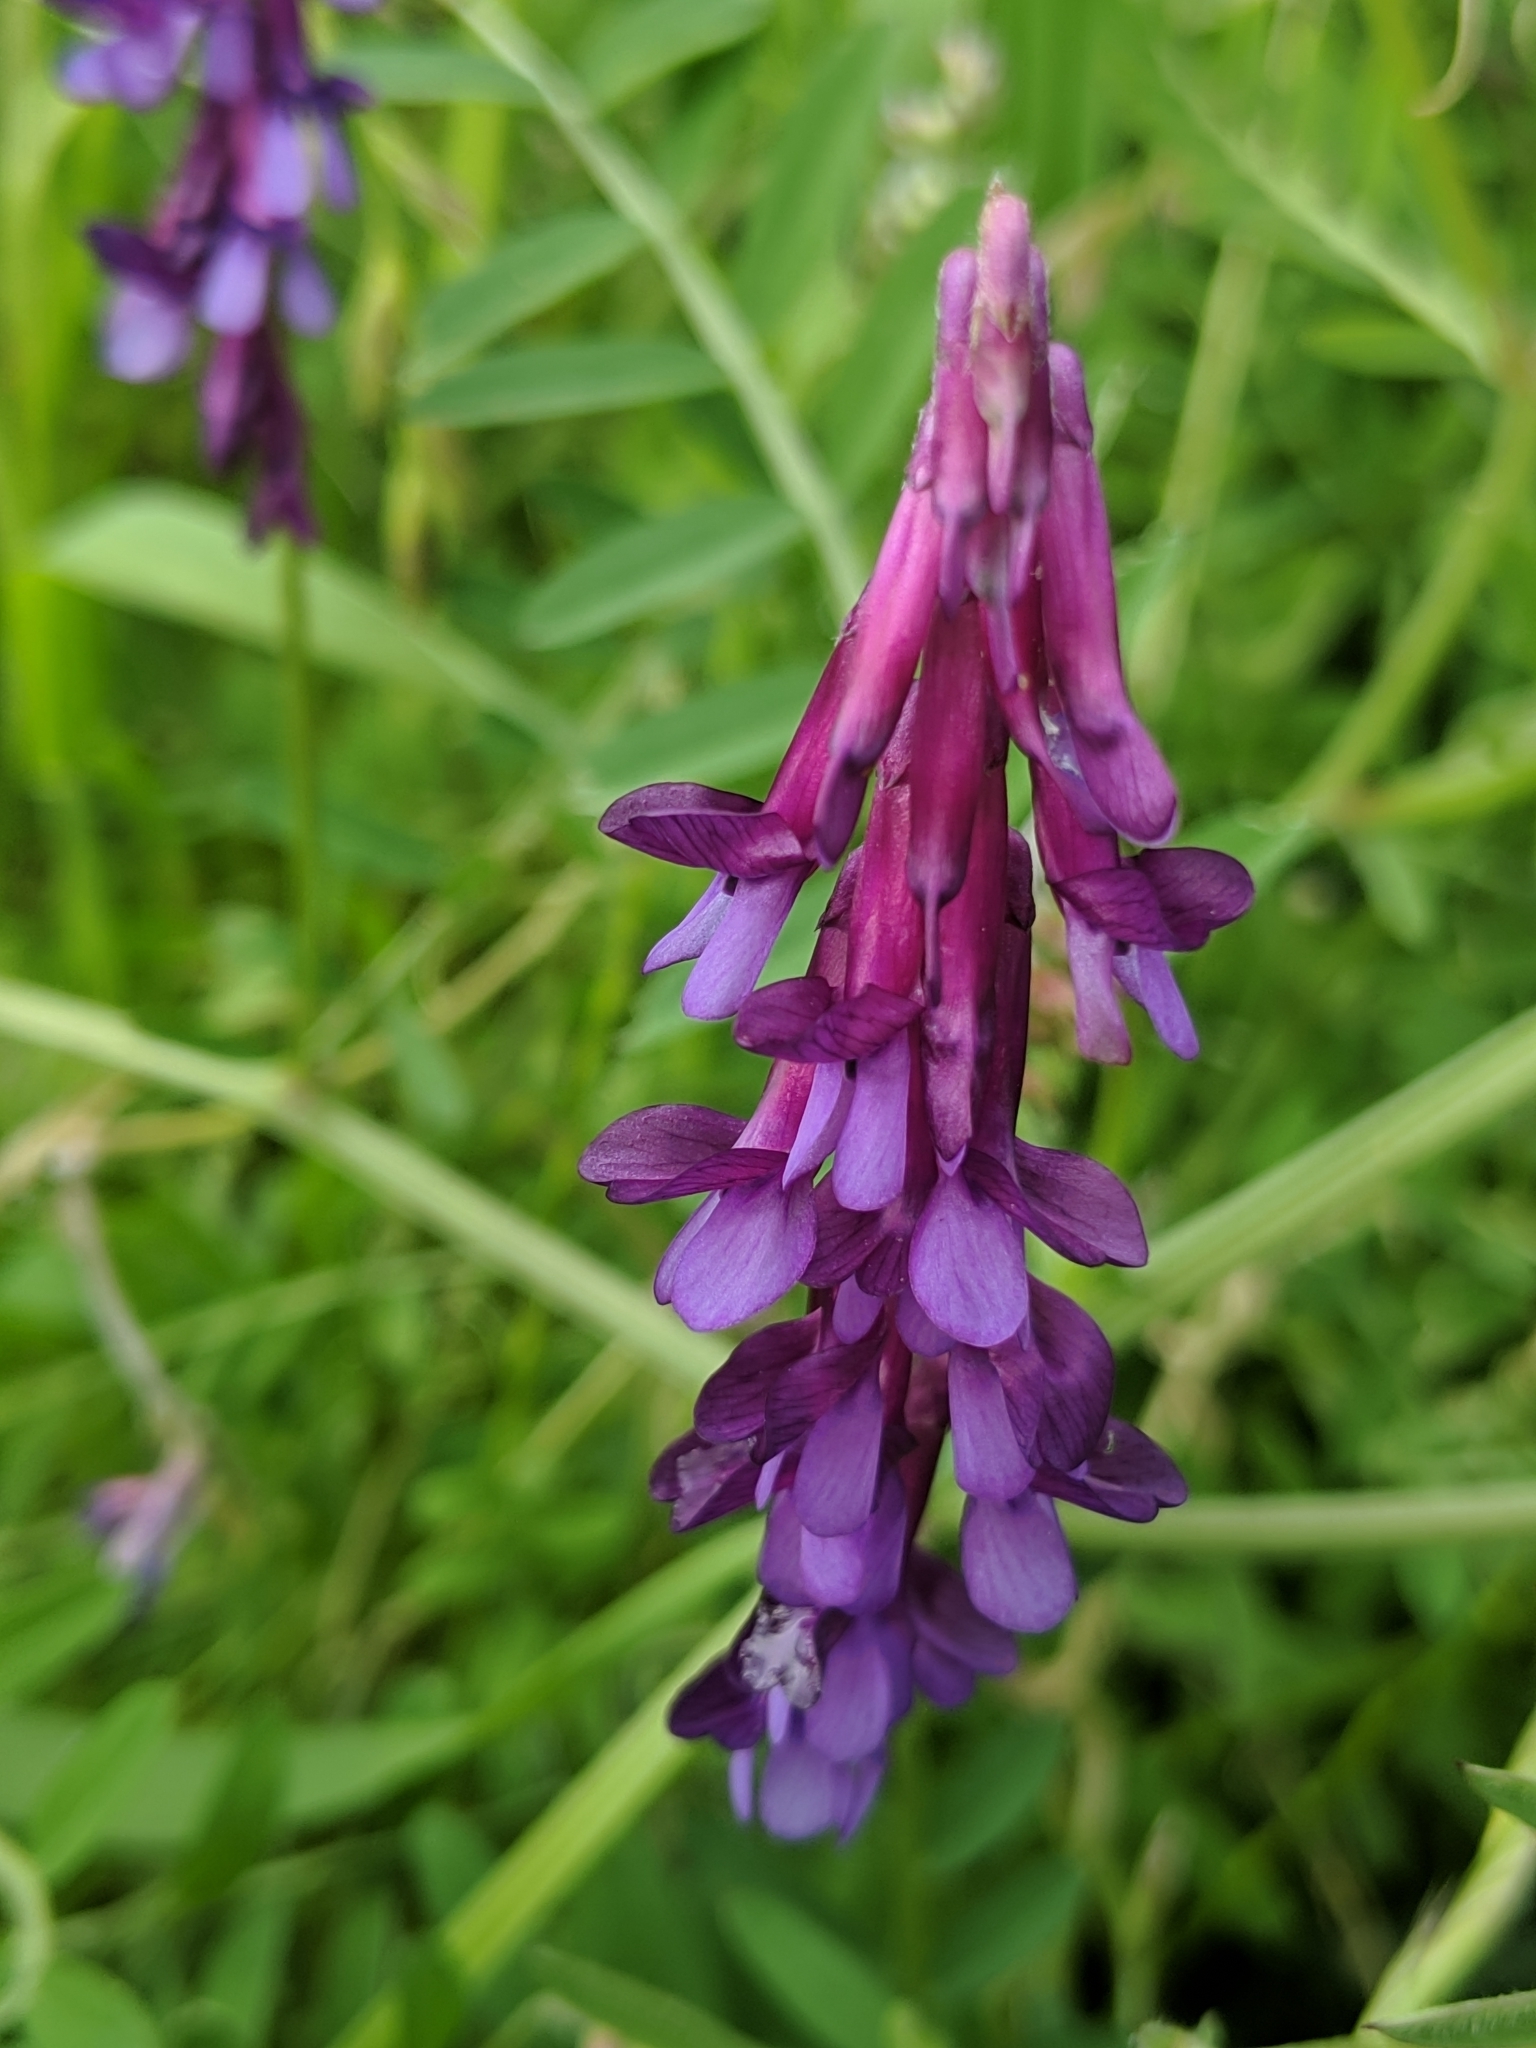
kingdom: Plantae
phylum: Tracheophyta
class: Magnoliopsida
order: Fabales
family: Fabaceae
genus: Vicia
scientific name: Vicia villosa
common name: Fodder vetch
